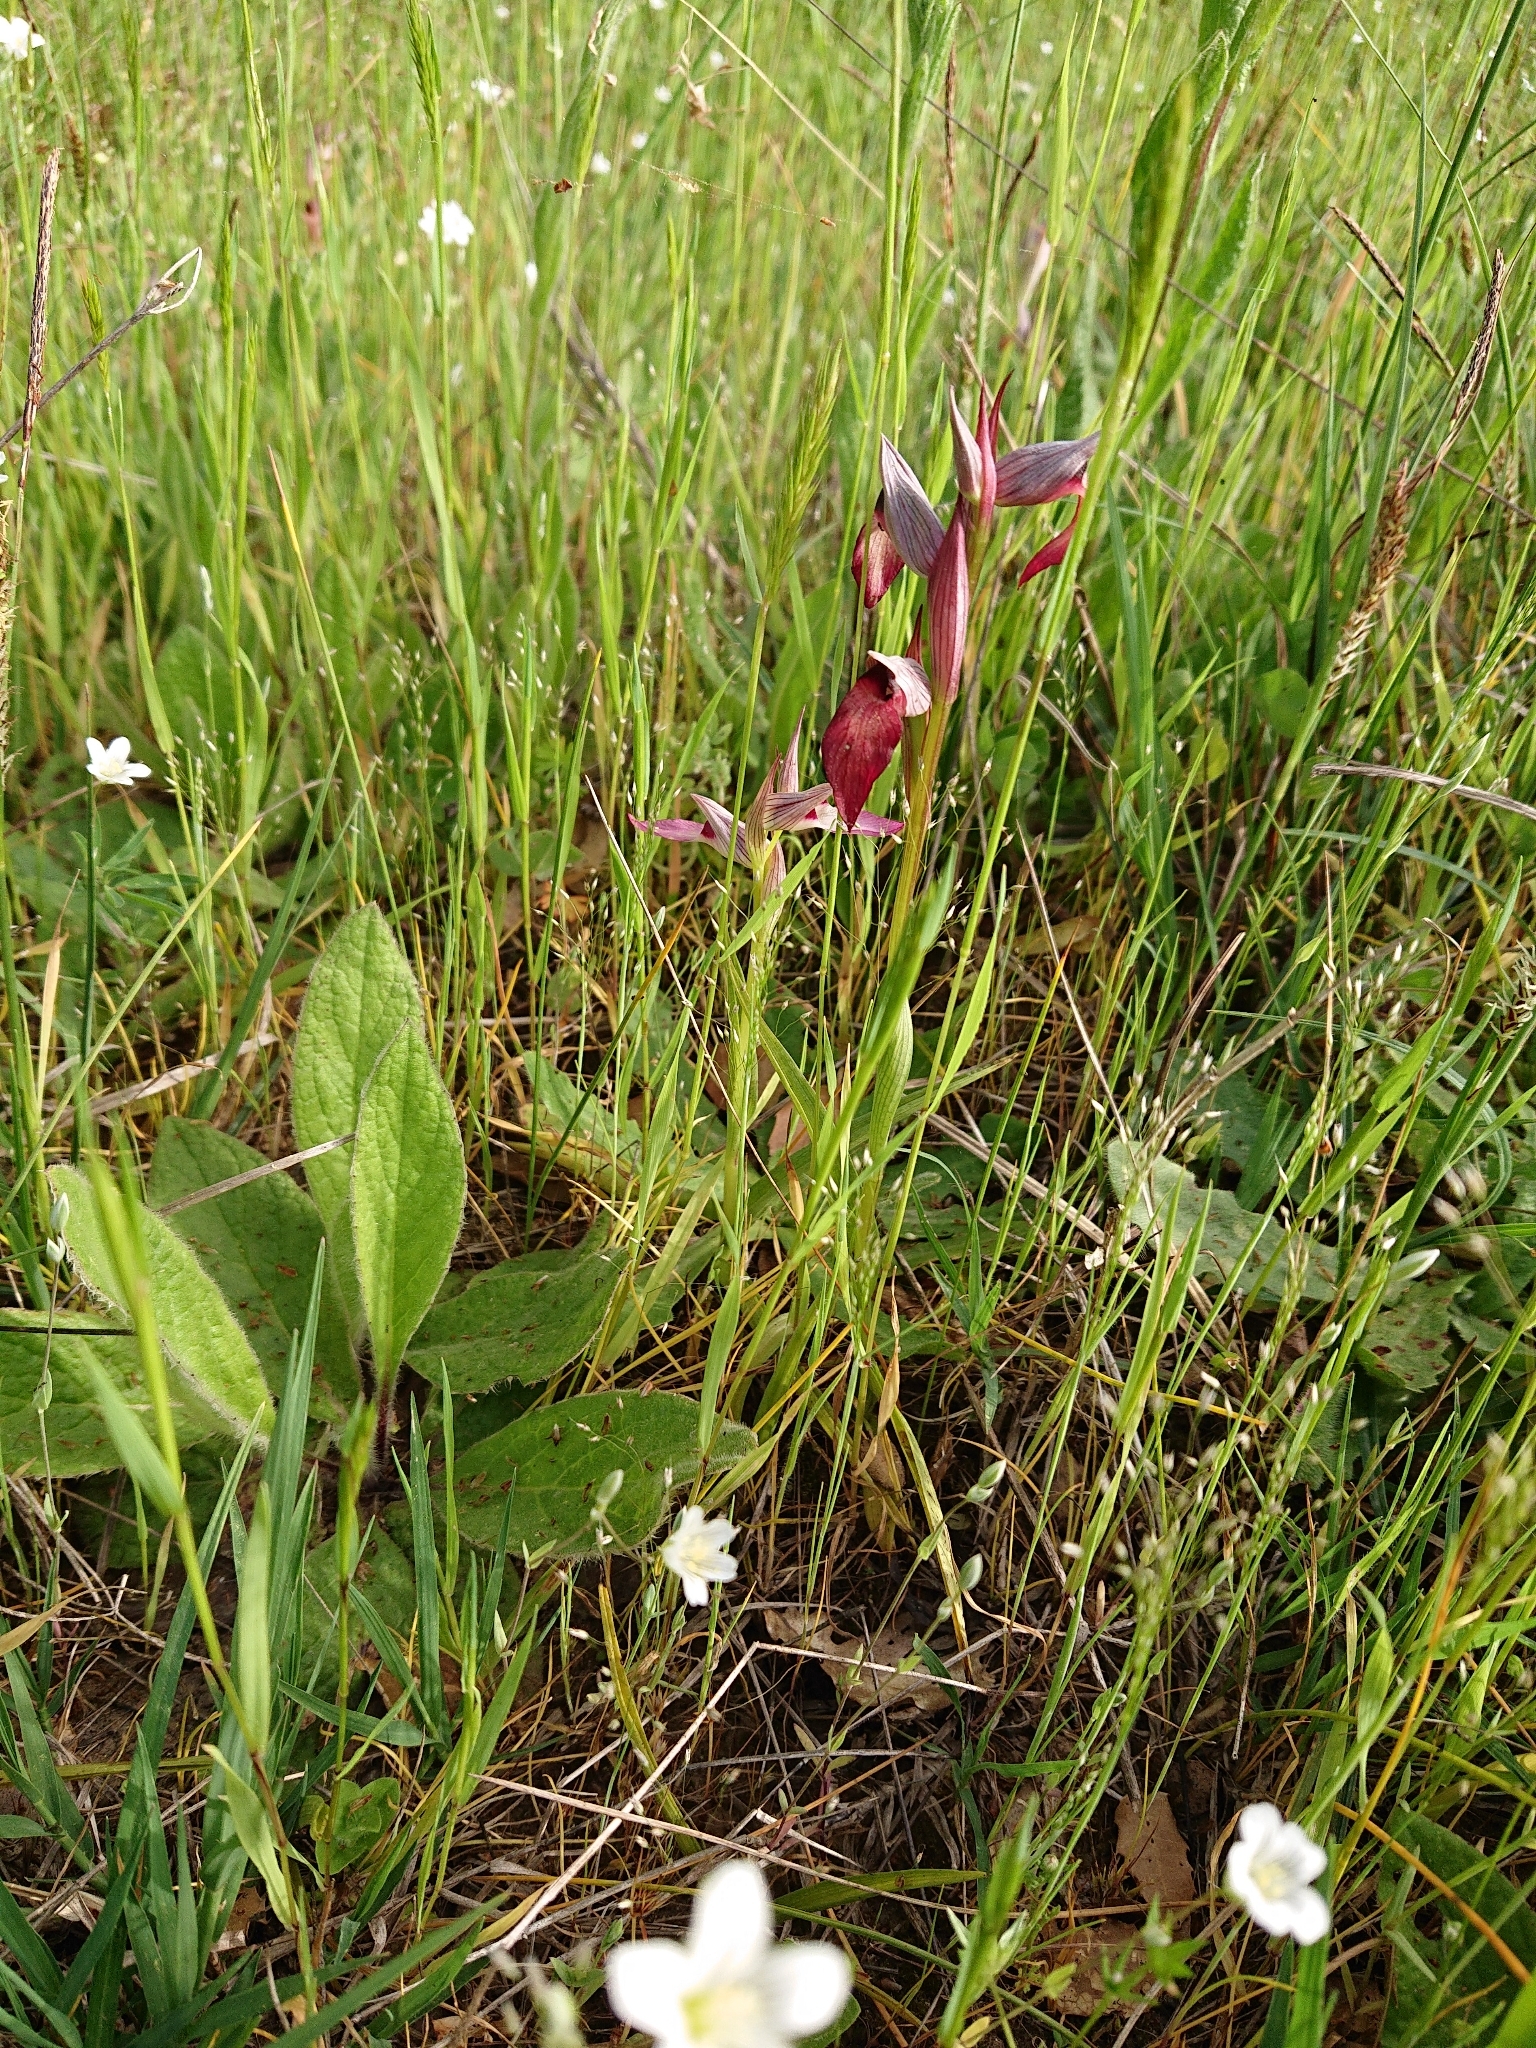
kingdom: Plantae
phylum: Tracheophyta
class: Liliopsida
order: Asparagales
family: Orchidaceae
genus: Serapias
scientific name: Serapias lingua
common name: Tongue-orchid
